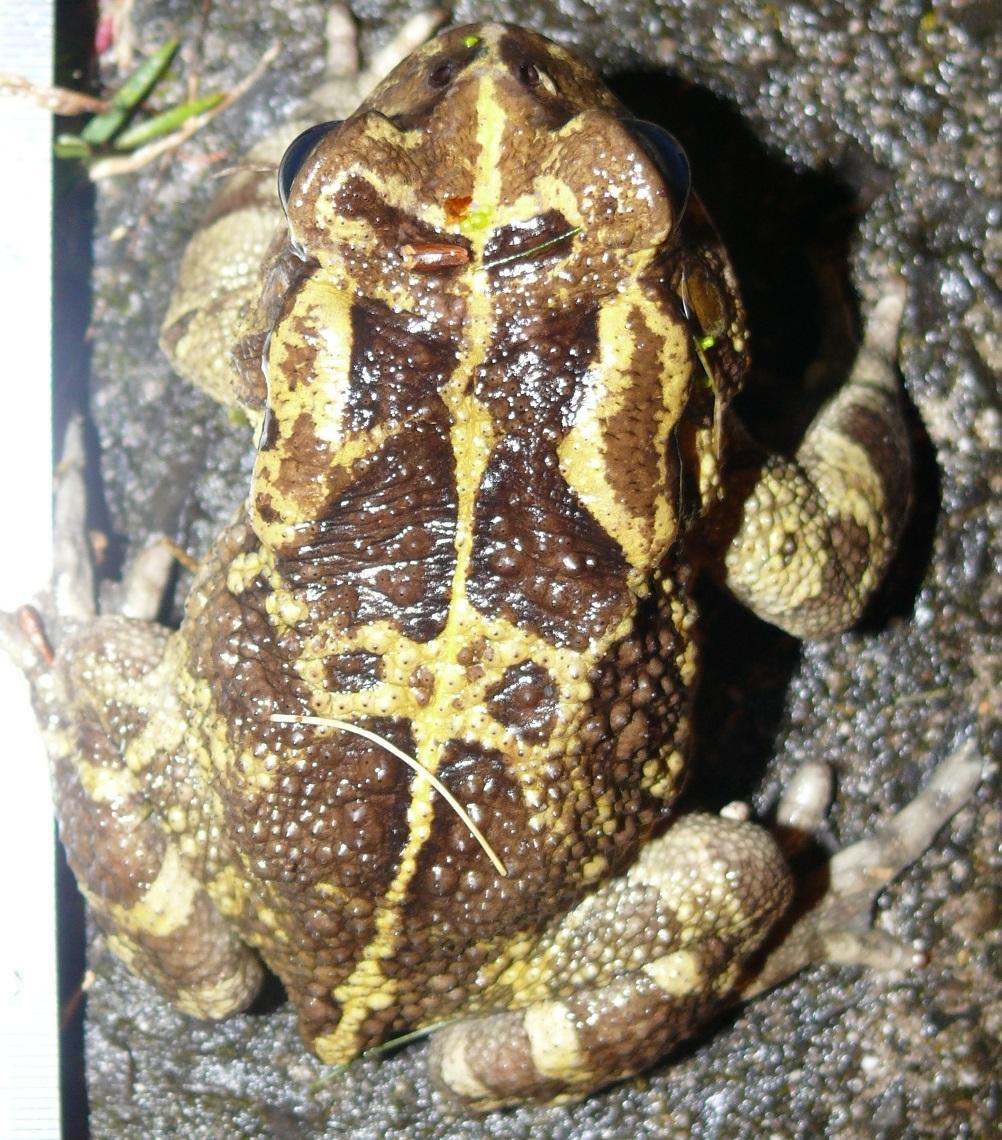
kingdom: Animalia
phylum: Chordata
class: Amphibia
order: Anura
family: Bufonidae
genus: Sclerophrys
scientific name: Sclerophrys pantherina
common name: Panther toad
